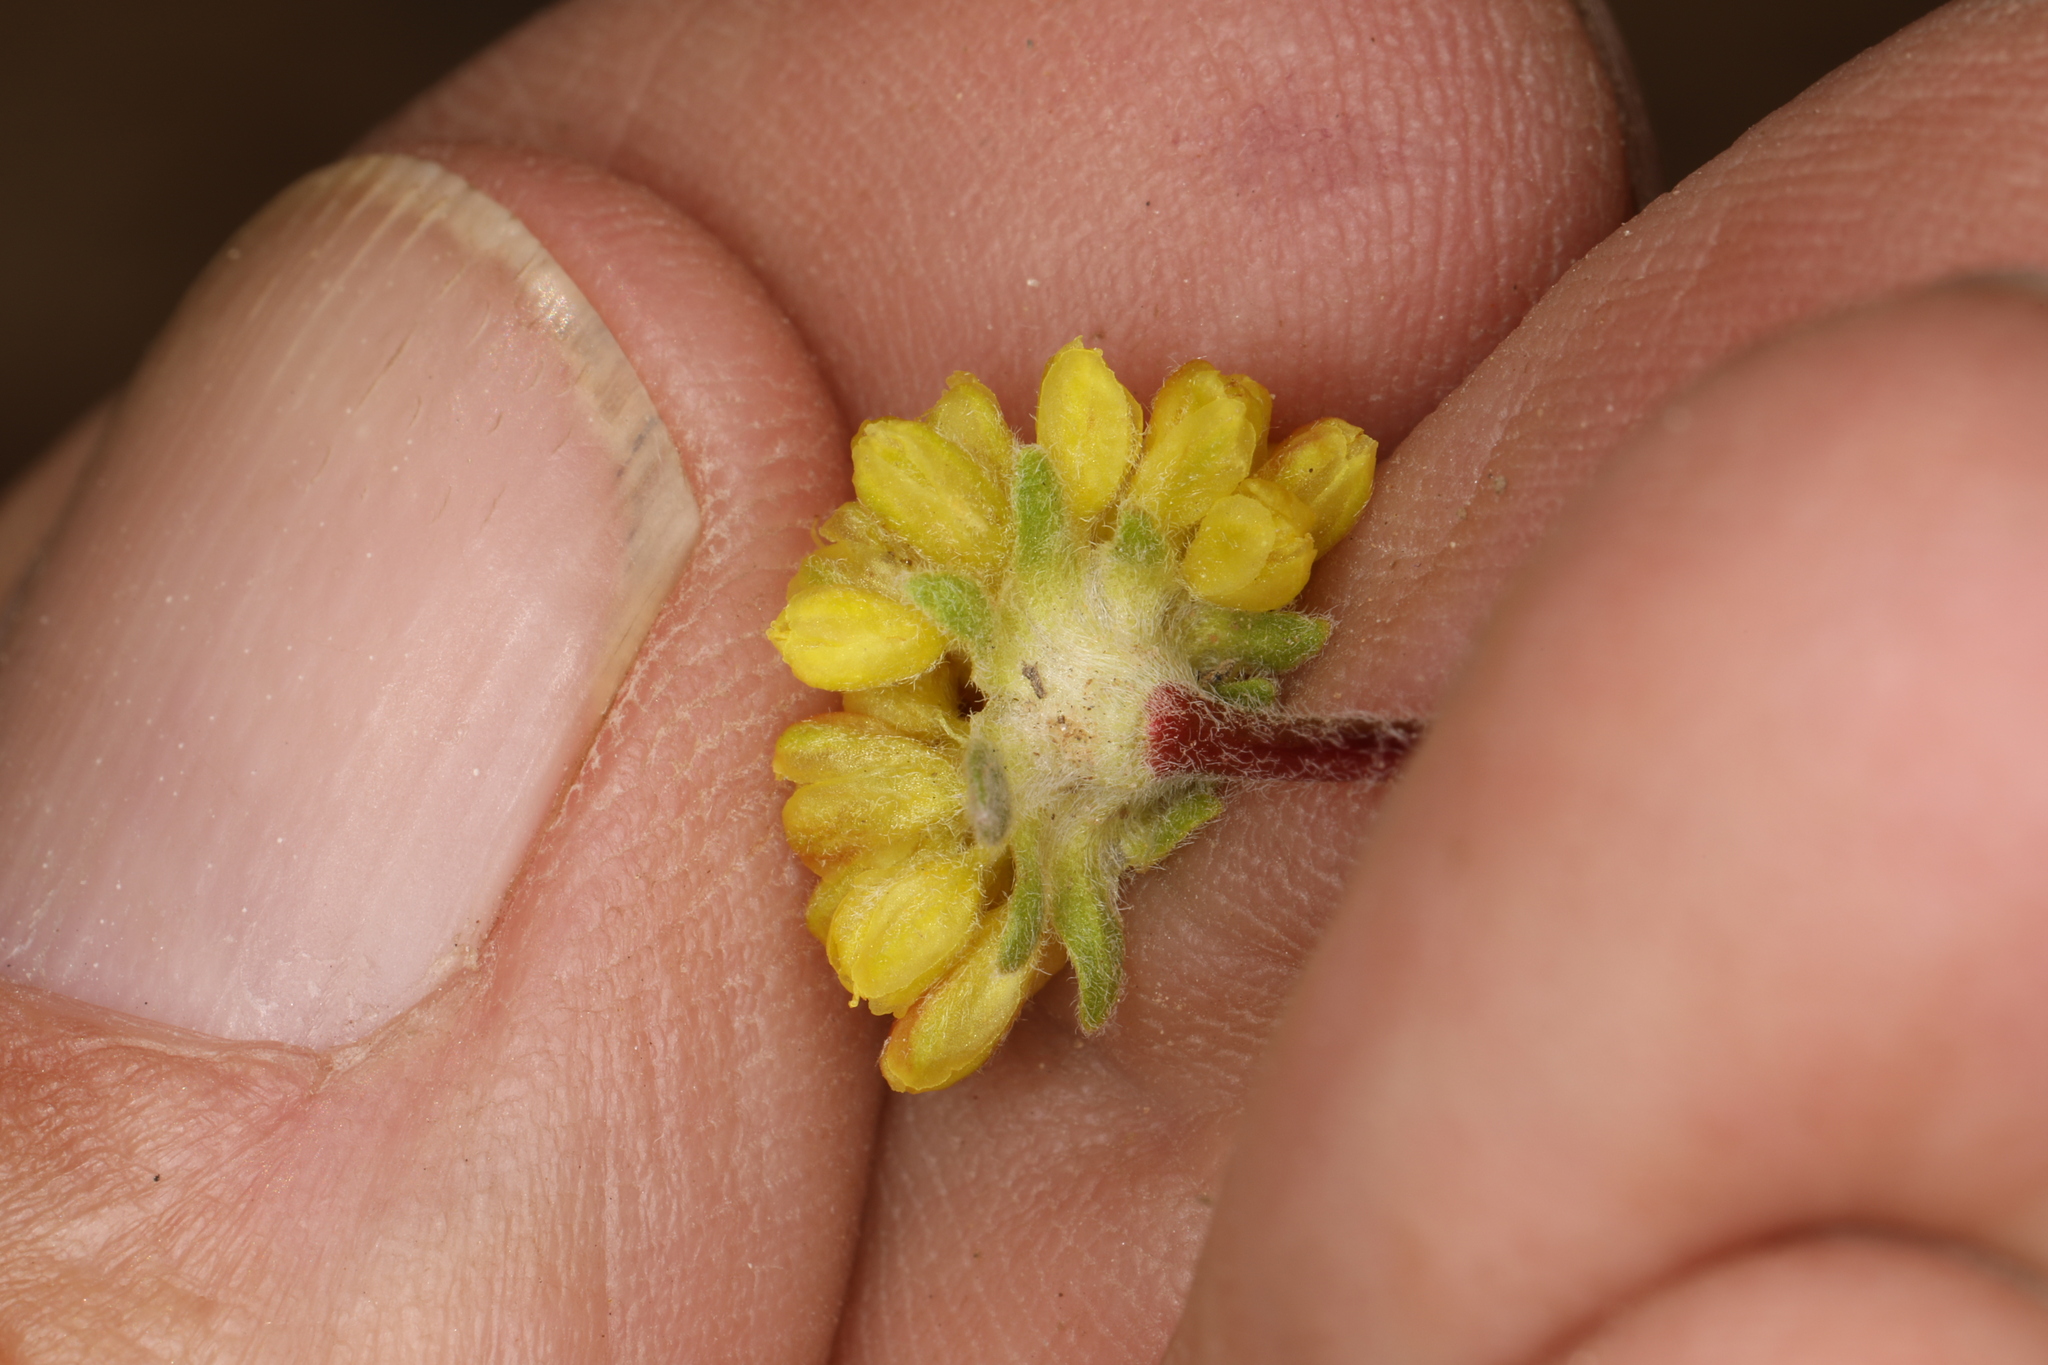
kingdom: Plantae
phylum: Tracheophyta
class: Magnoliopsida
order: Caryophyllales
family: Polygonaceae
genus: Eriogonum
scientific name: Eriogonum caespitosum
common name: Matted wild buckwheat
